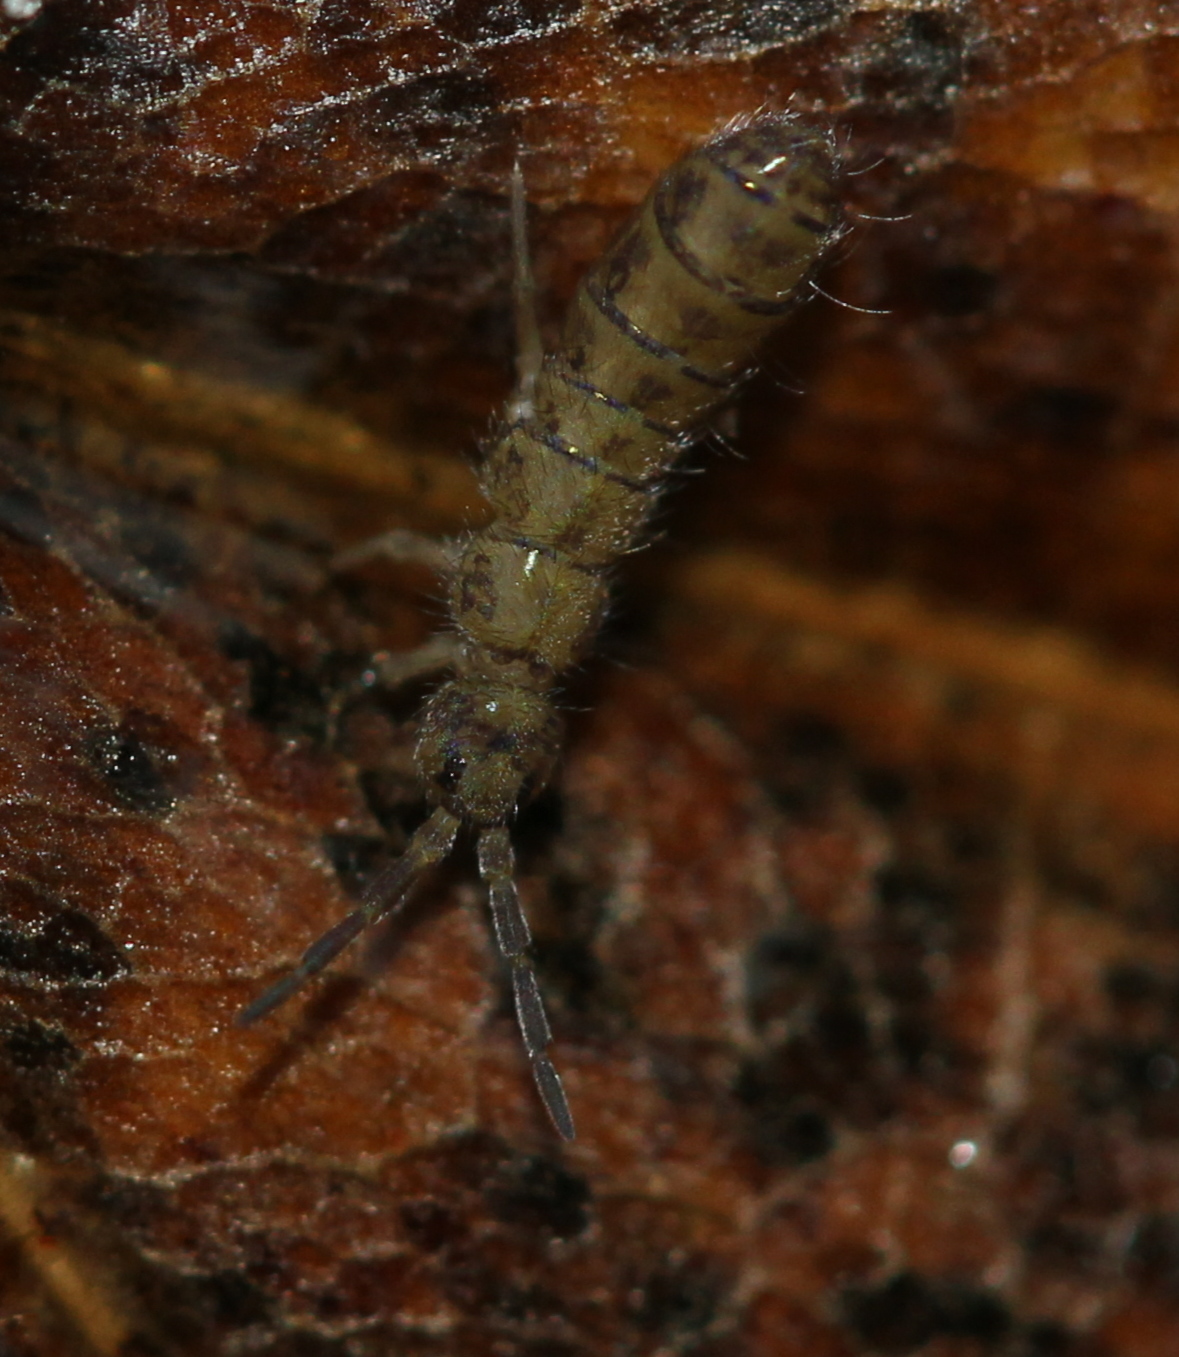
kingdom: Animalia
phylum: Arthropoda
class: Collembola
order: Entomobryomorpha
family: Isotomidae
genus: Isotoma
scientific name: Isotoma delta
